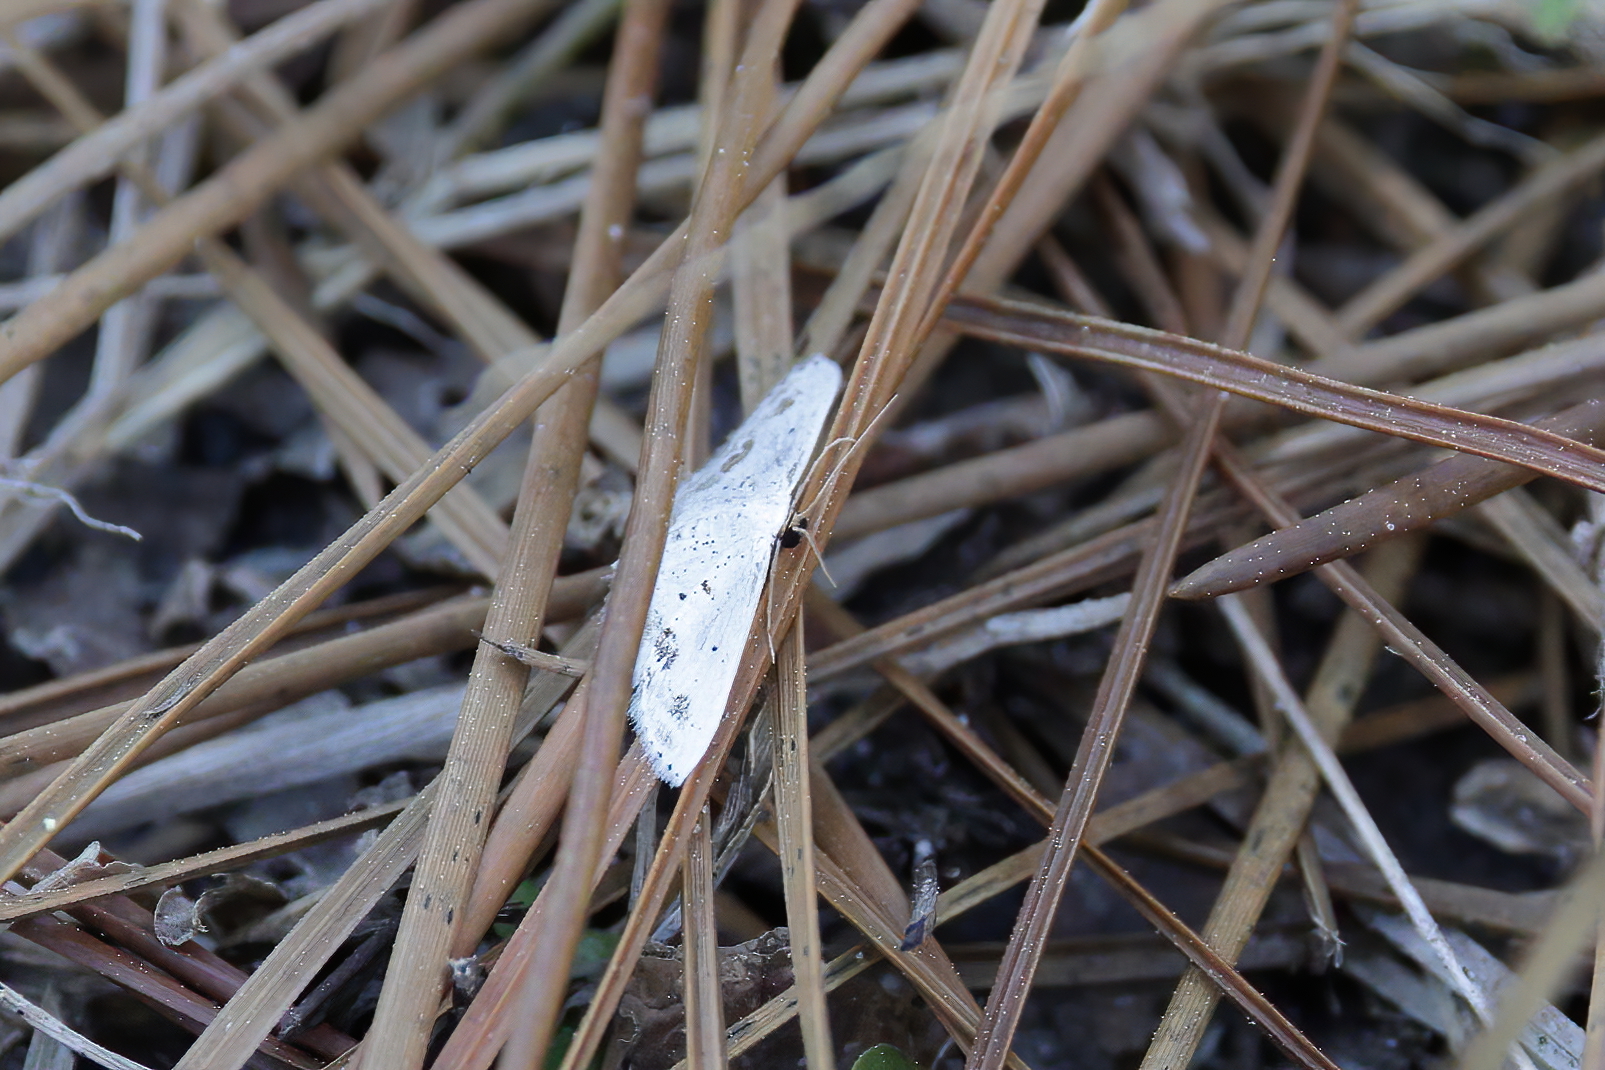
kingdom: Animalia
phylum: Arthropoda
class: Insecta
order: Lepidoptera
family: Geometridae
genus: Scopula
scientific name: Scopula lautaria
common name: Small frosted wave moth
